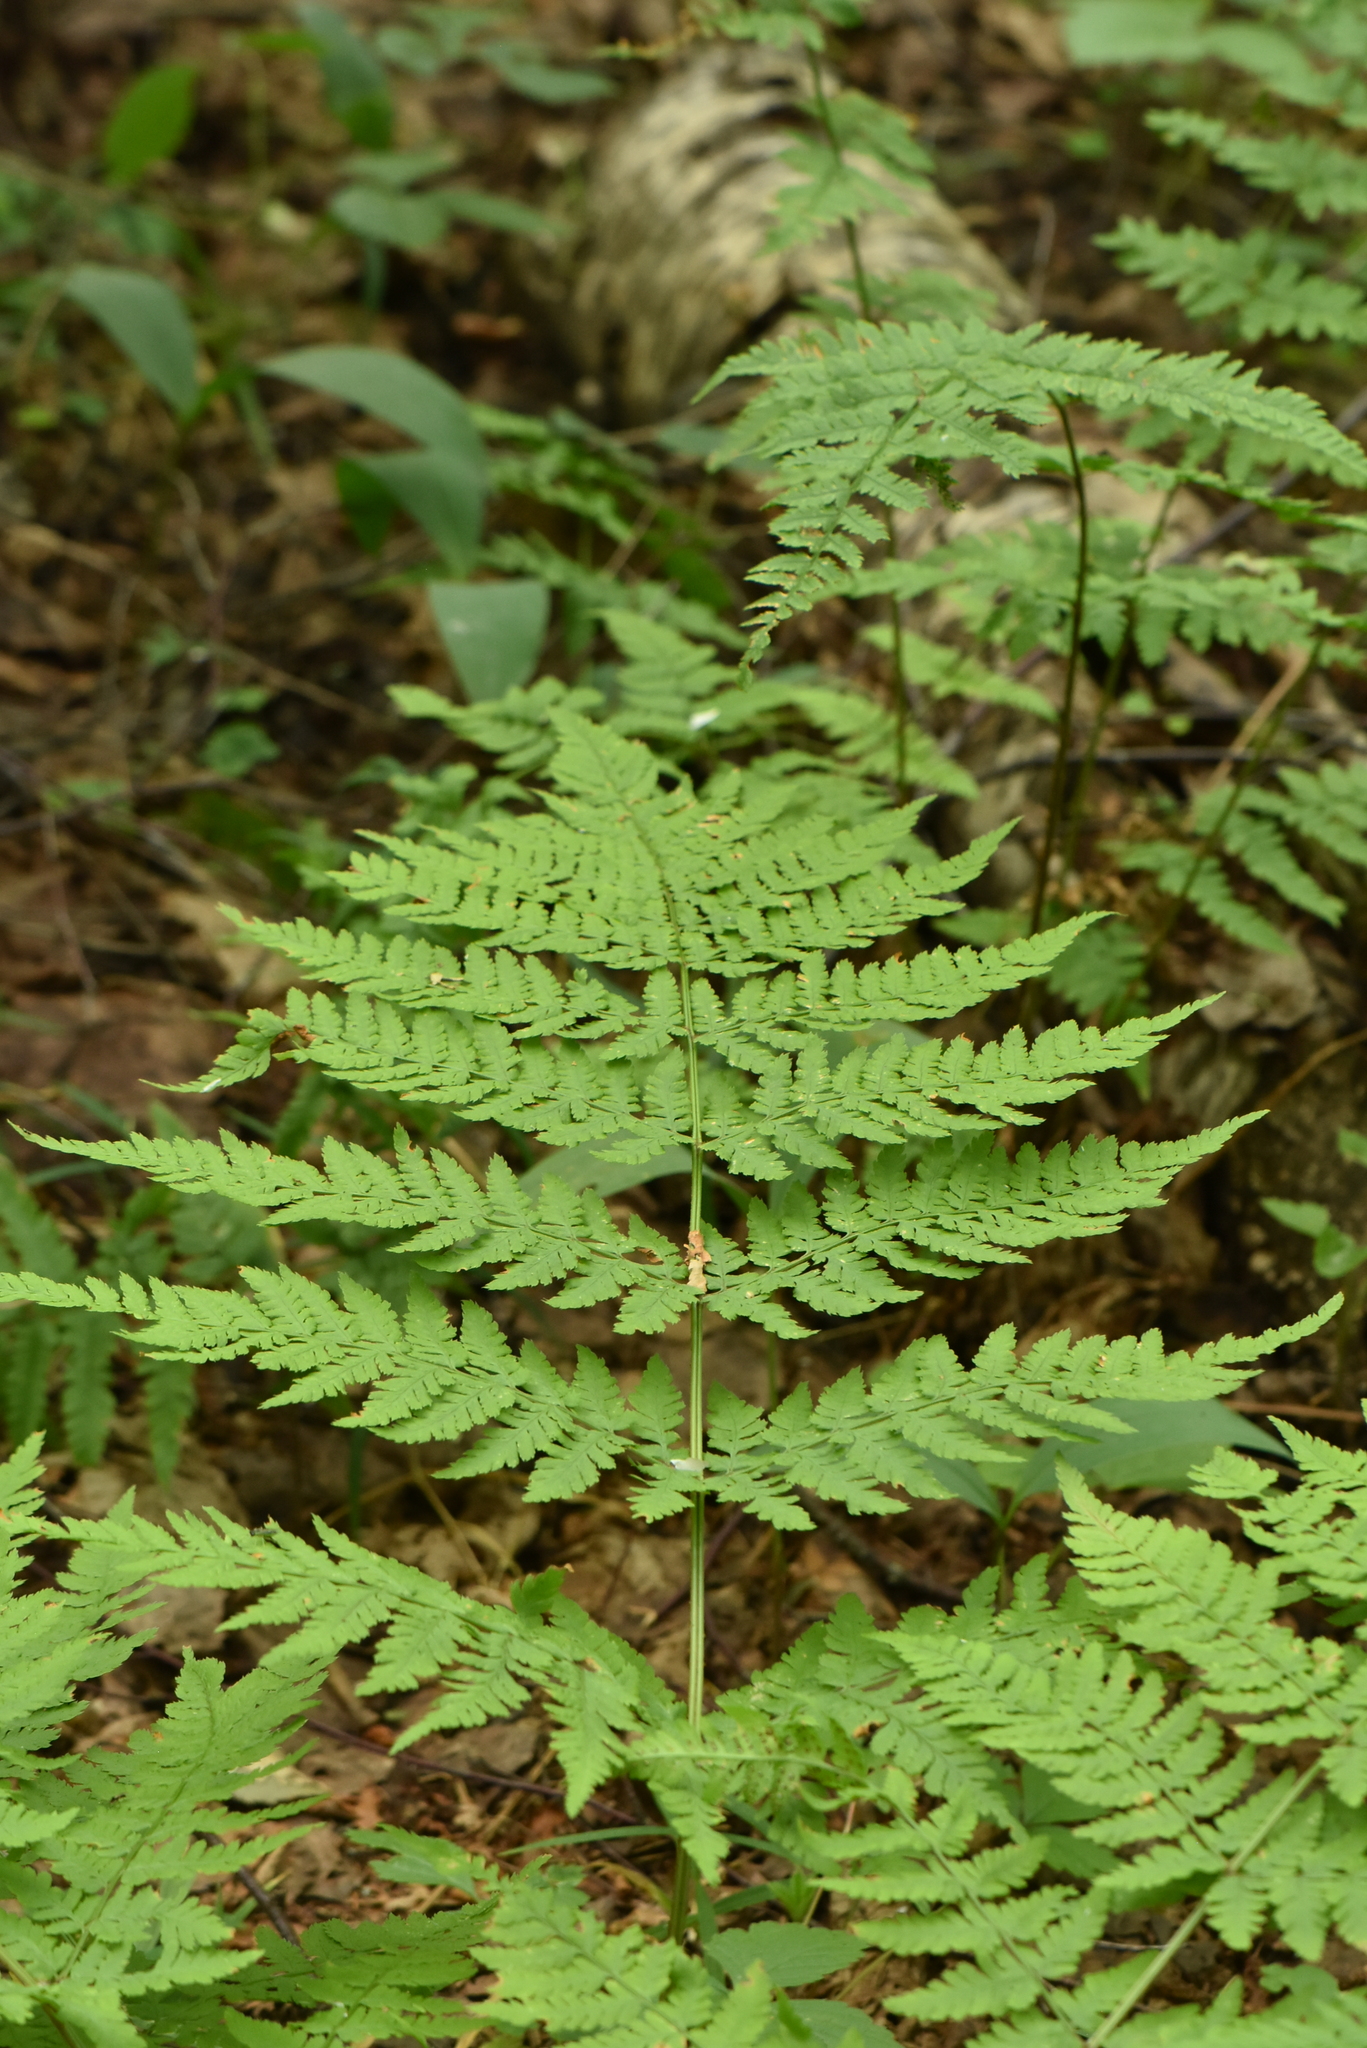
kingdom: Plantae
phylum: Tracheophyta
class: Polypodiopsida
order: Polypodiales
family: Dryopteridaceae
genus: Dryopteris
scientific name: Dryopteris expansa
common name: Northern buckler fern
